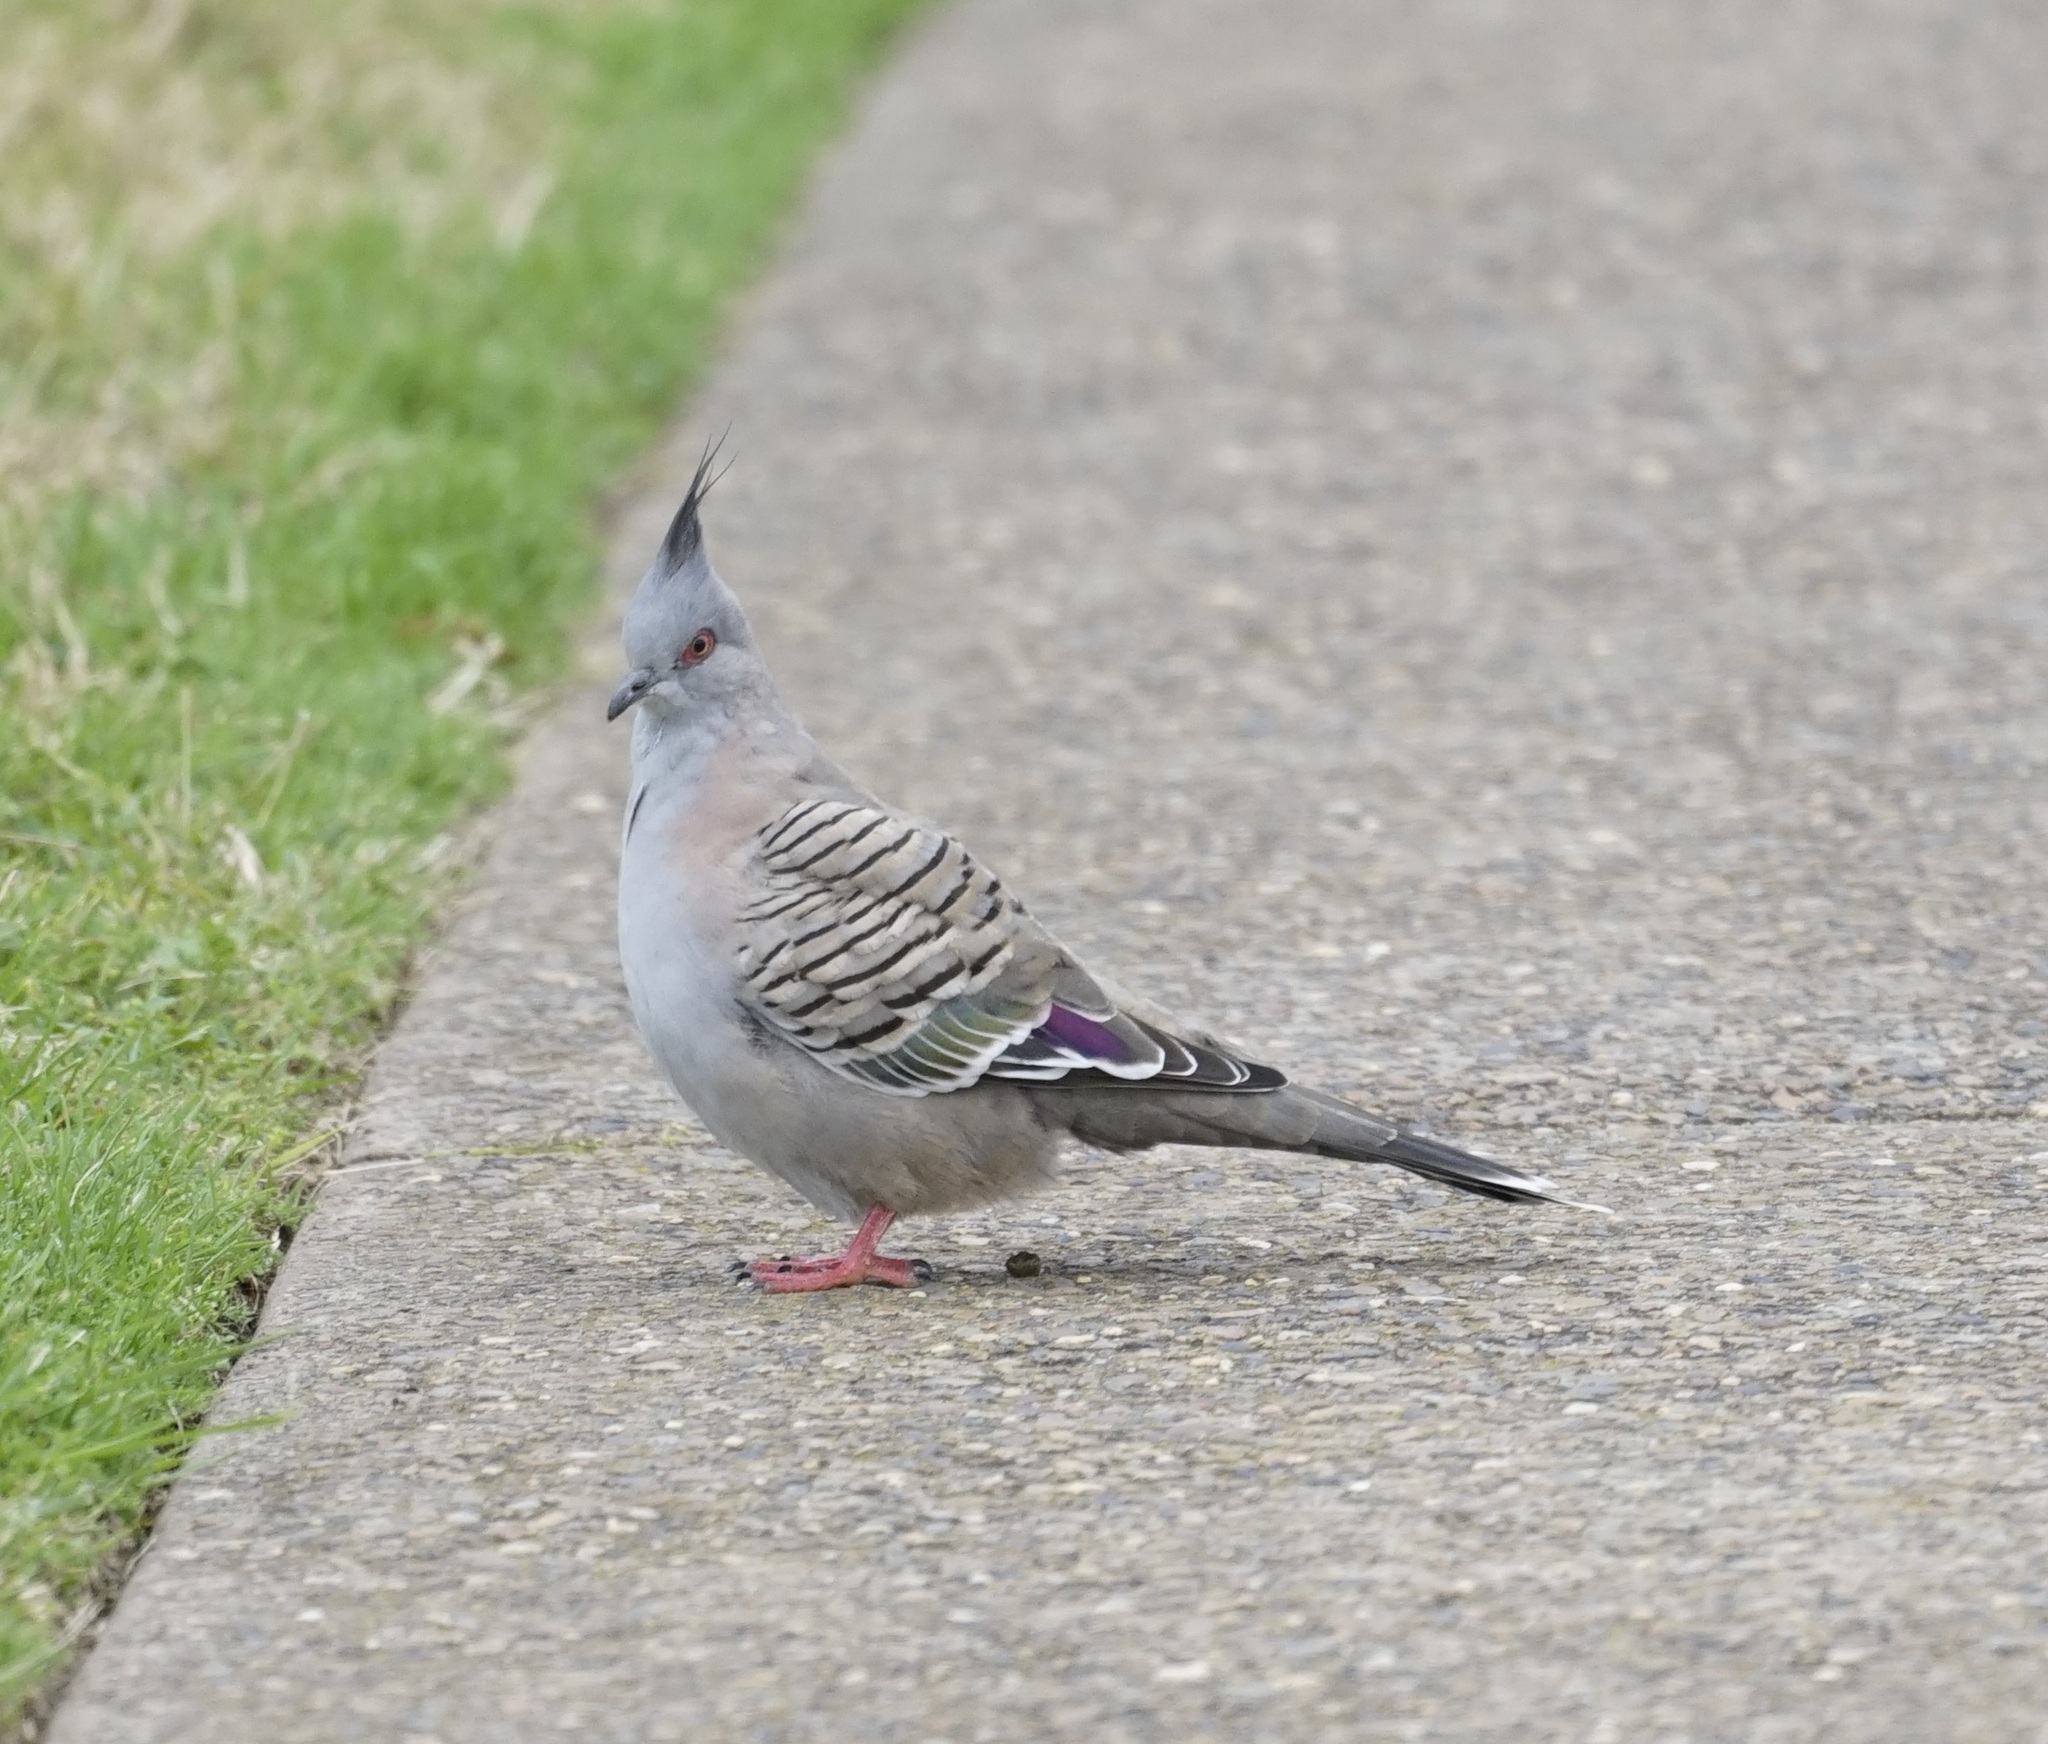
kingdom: Animalia
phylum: Chordata
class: Aves
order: Columbiformes
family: Columbidae
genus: Ocyphaps
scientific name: Ocyphaps lophotes
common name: Crested pigeon
